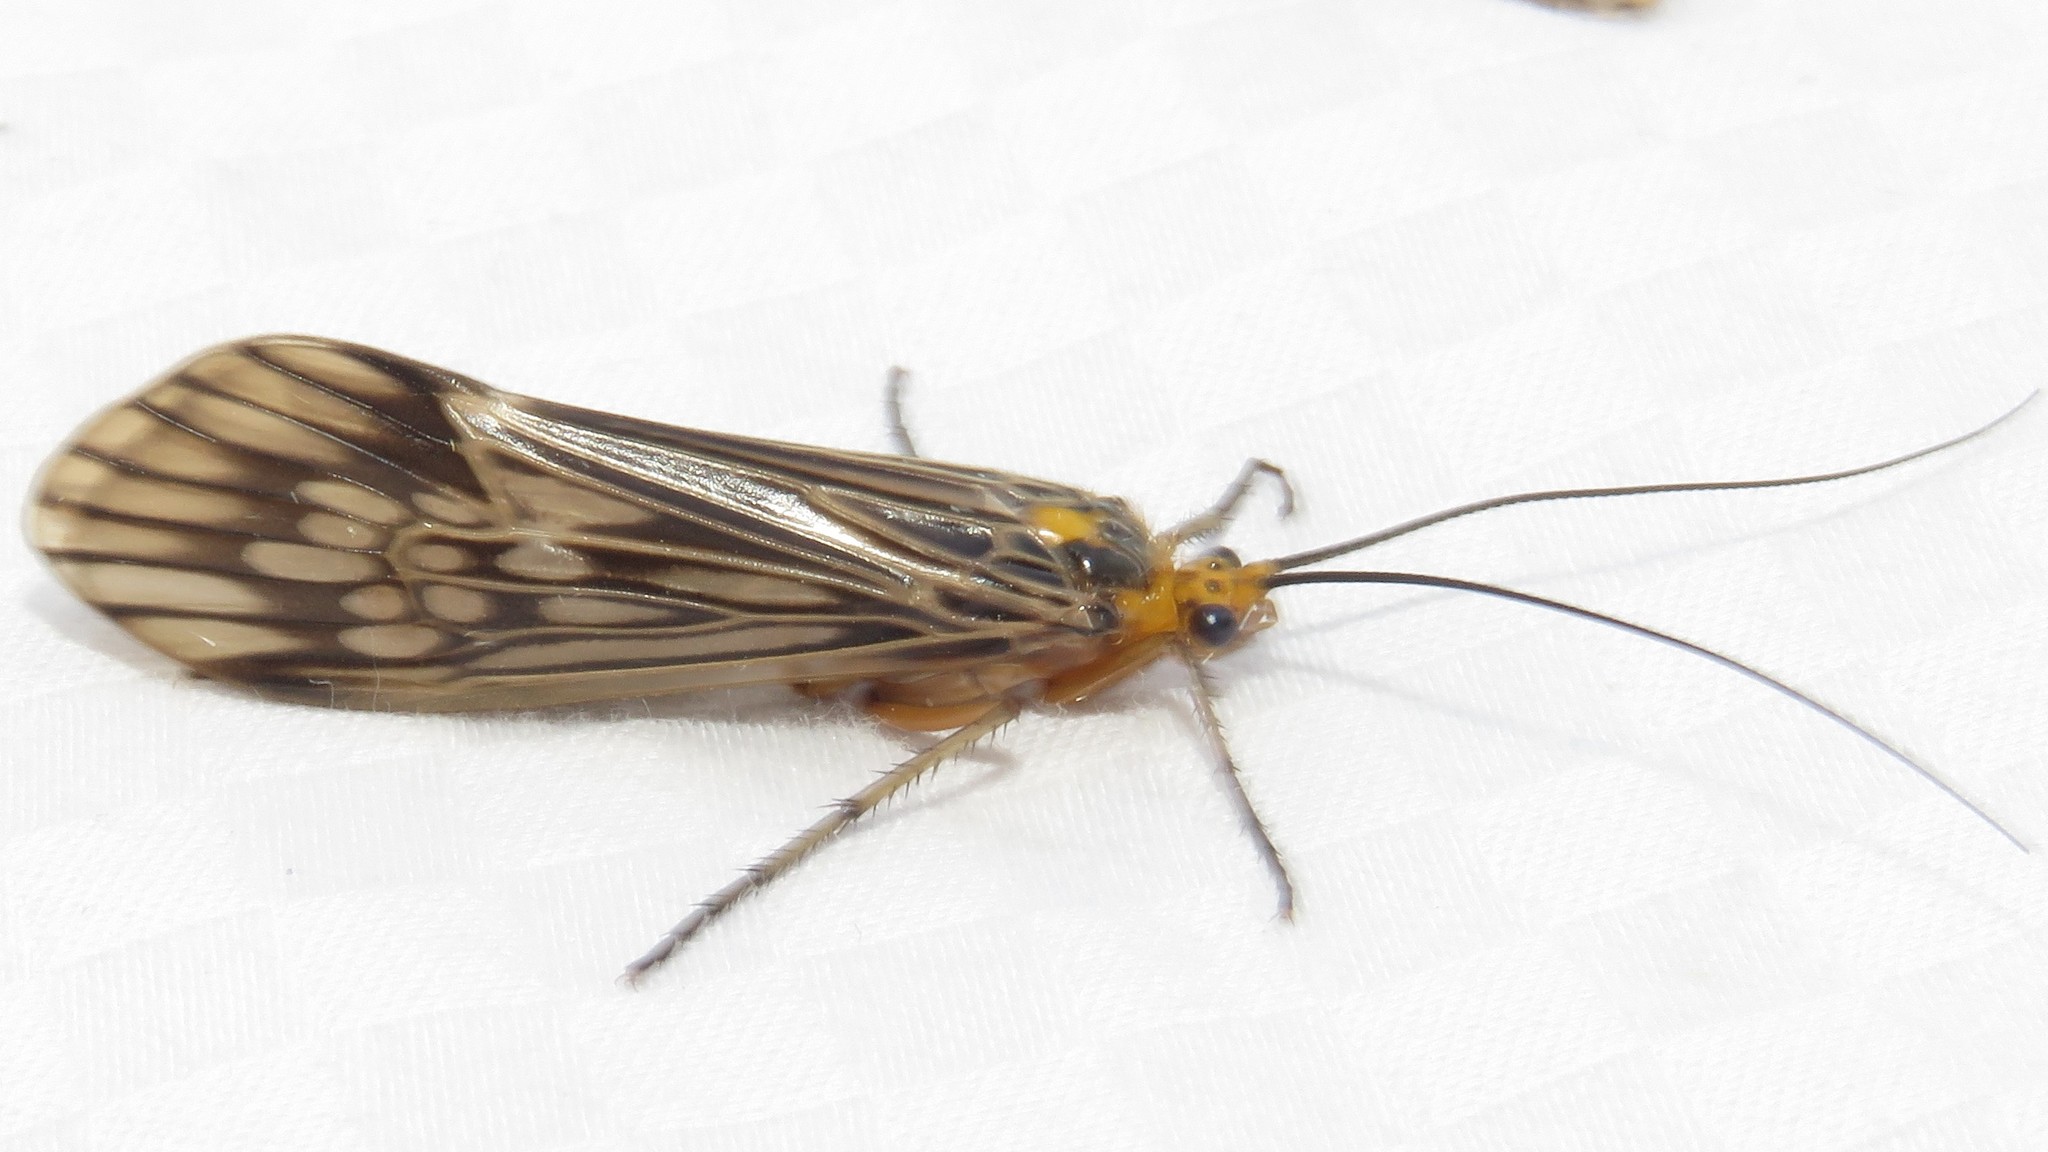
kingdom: Animalia
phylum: Arthropoda
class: Insecta
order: Trichoptera
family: Limnephilidae
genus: Hydatophylax
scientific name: Hydatophylax argus
